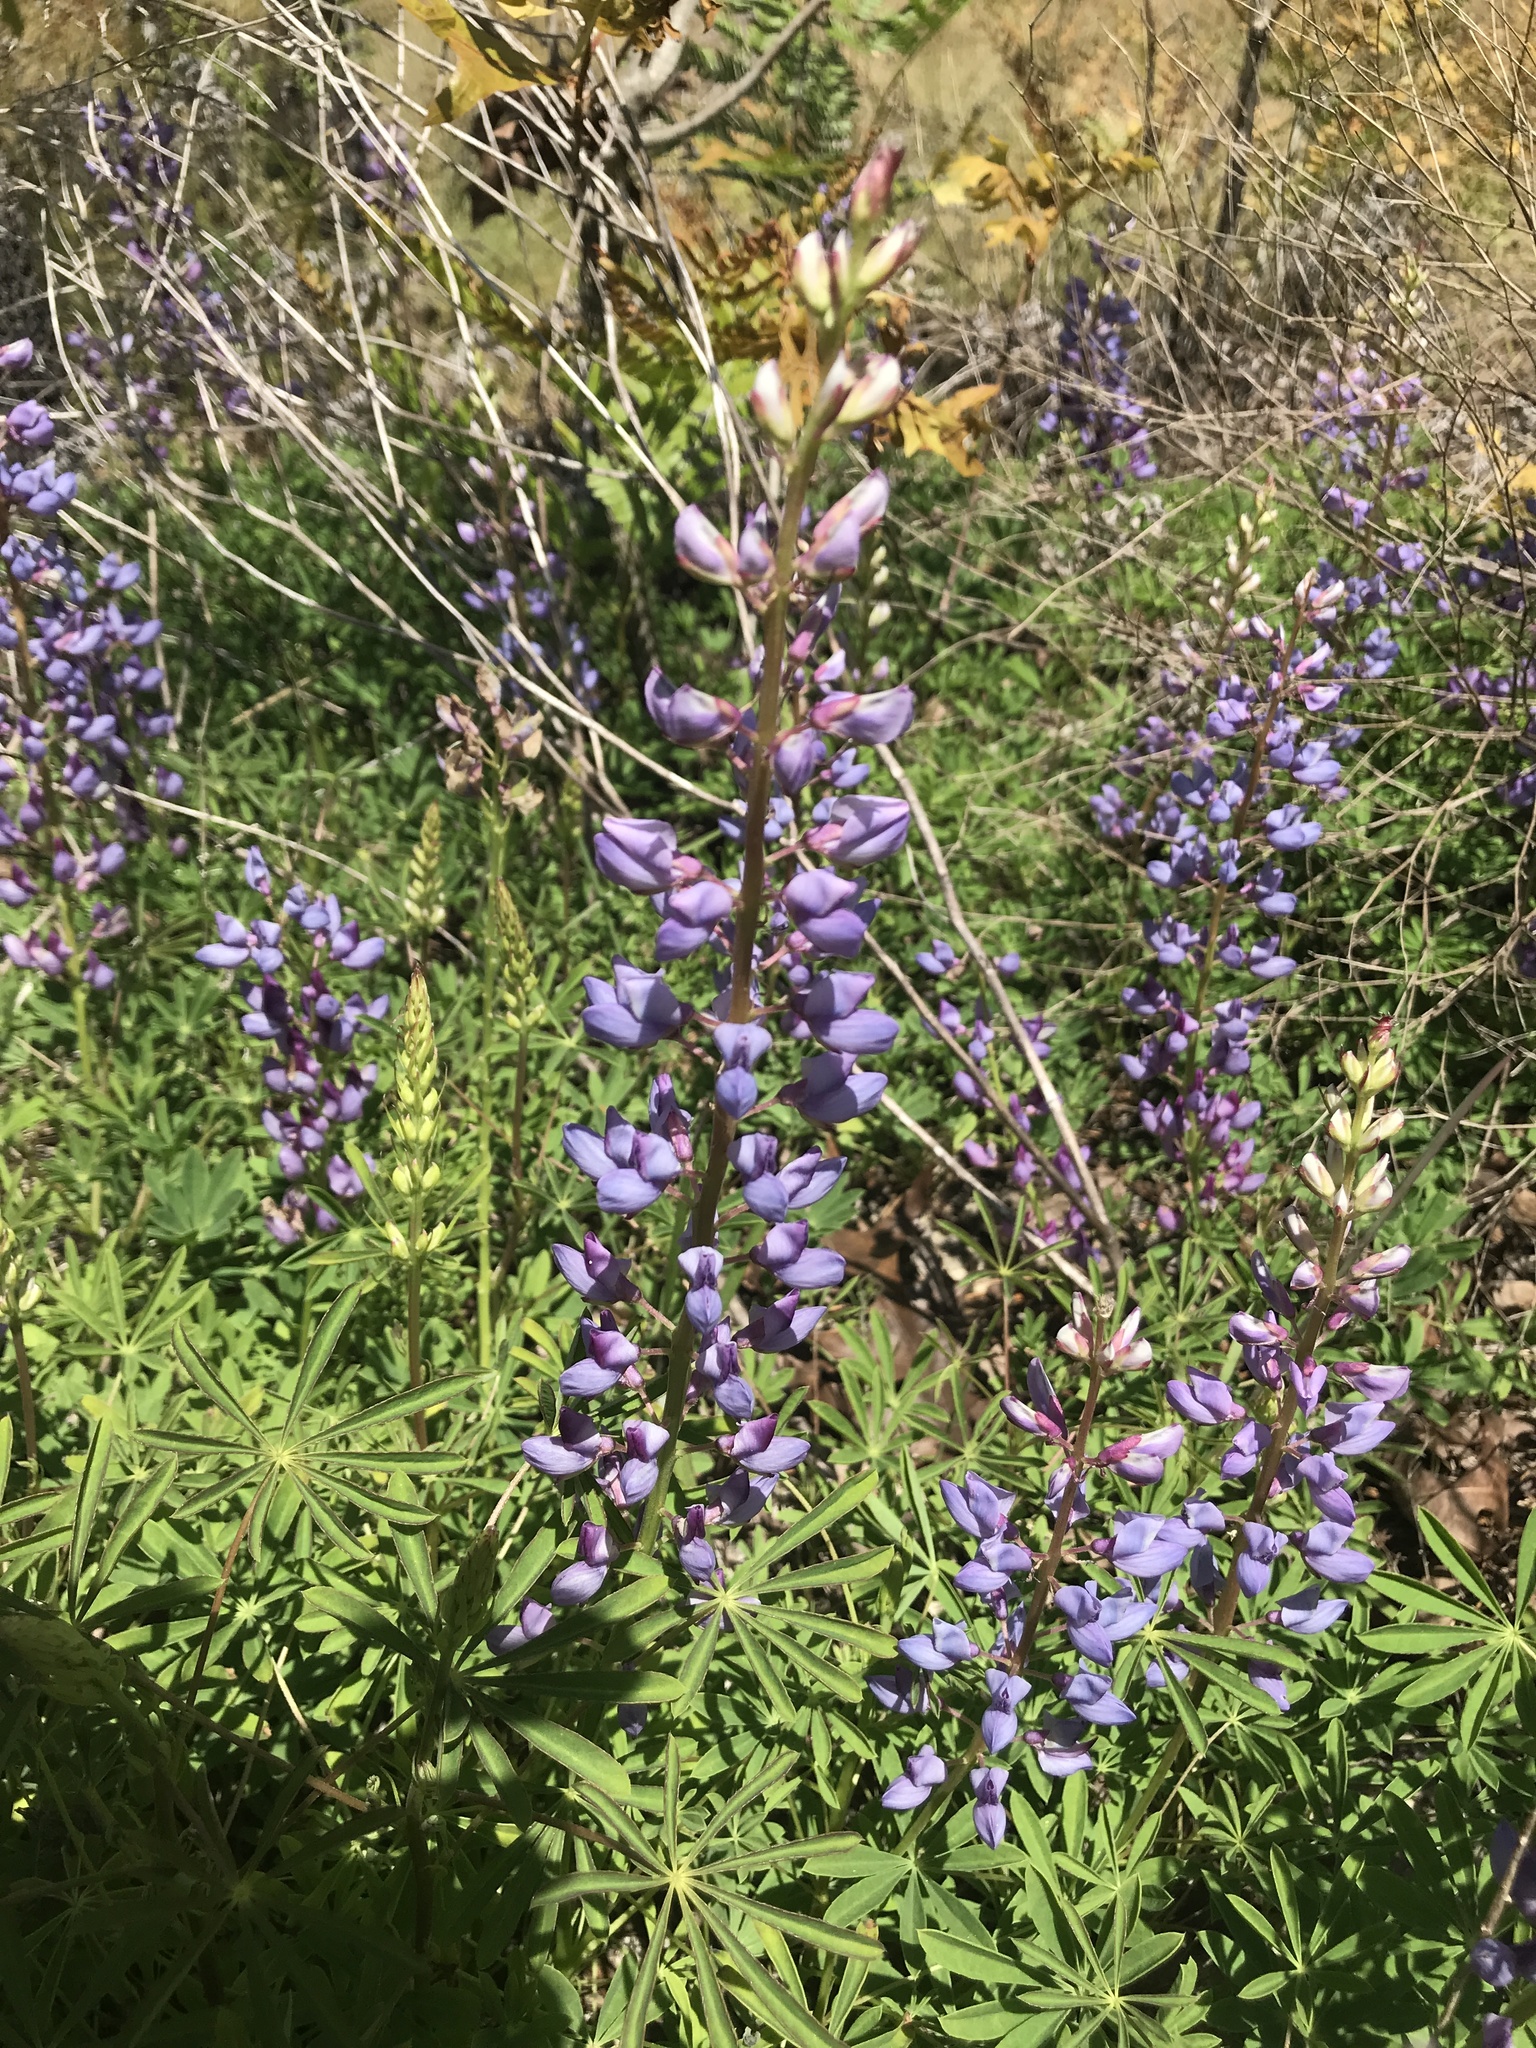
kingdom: Plantae
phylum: Tracheophyta
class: Magnoliopsida
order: Fabales
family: Fabaceae
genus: Lupinus
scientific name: Lupinus perennis
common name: Sundial lupine
